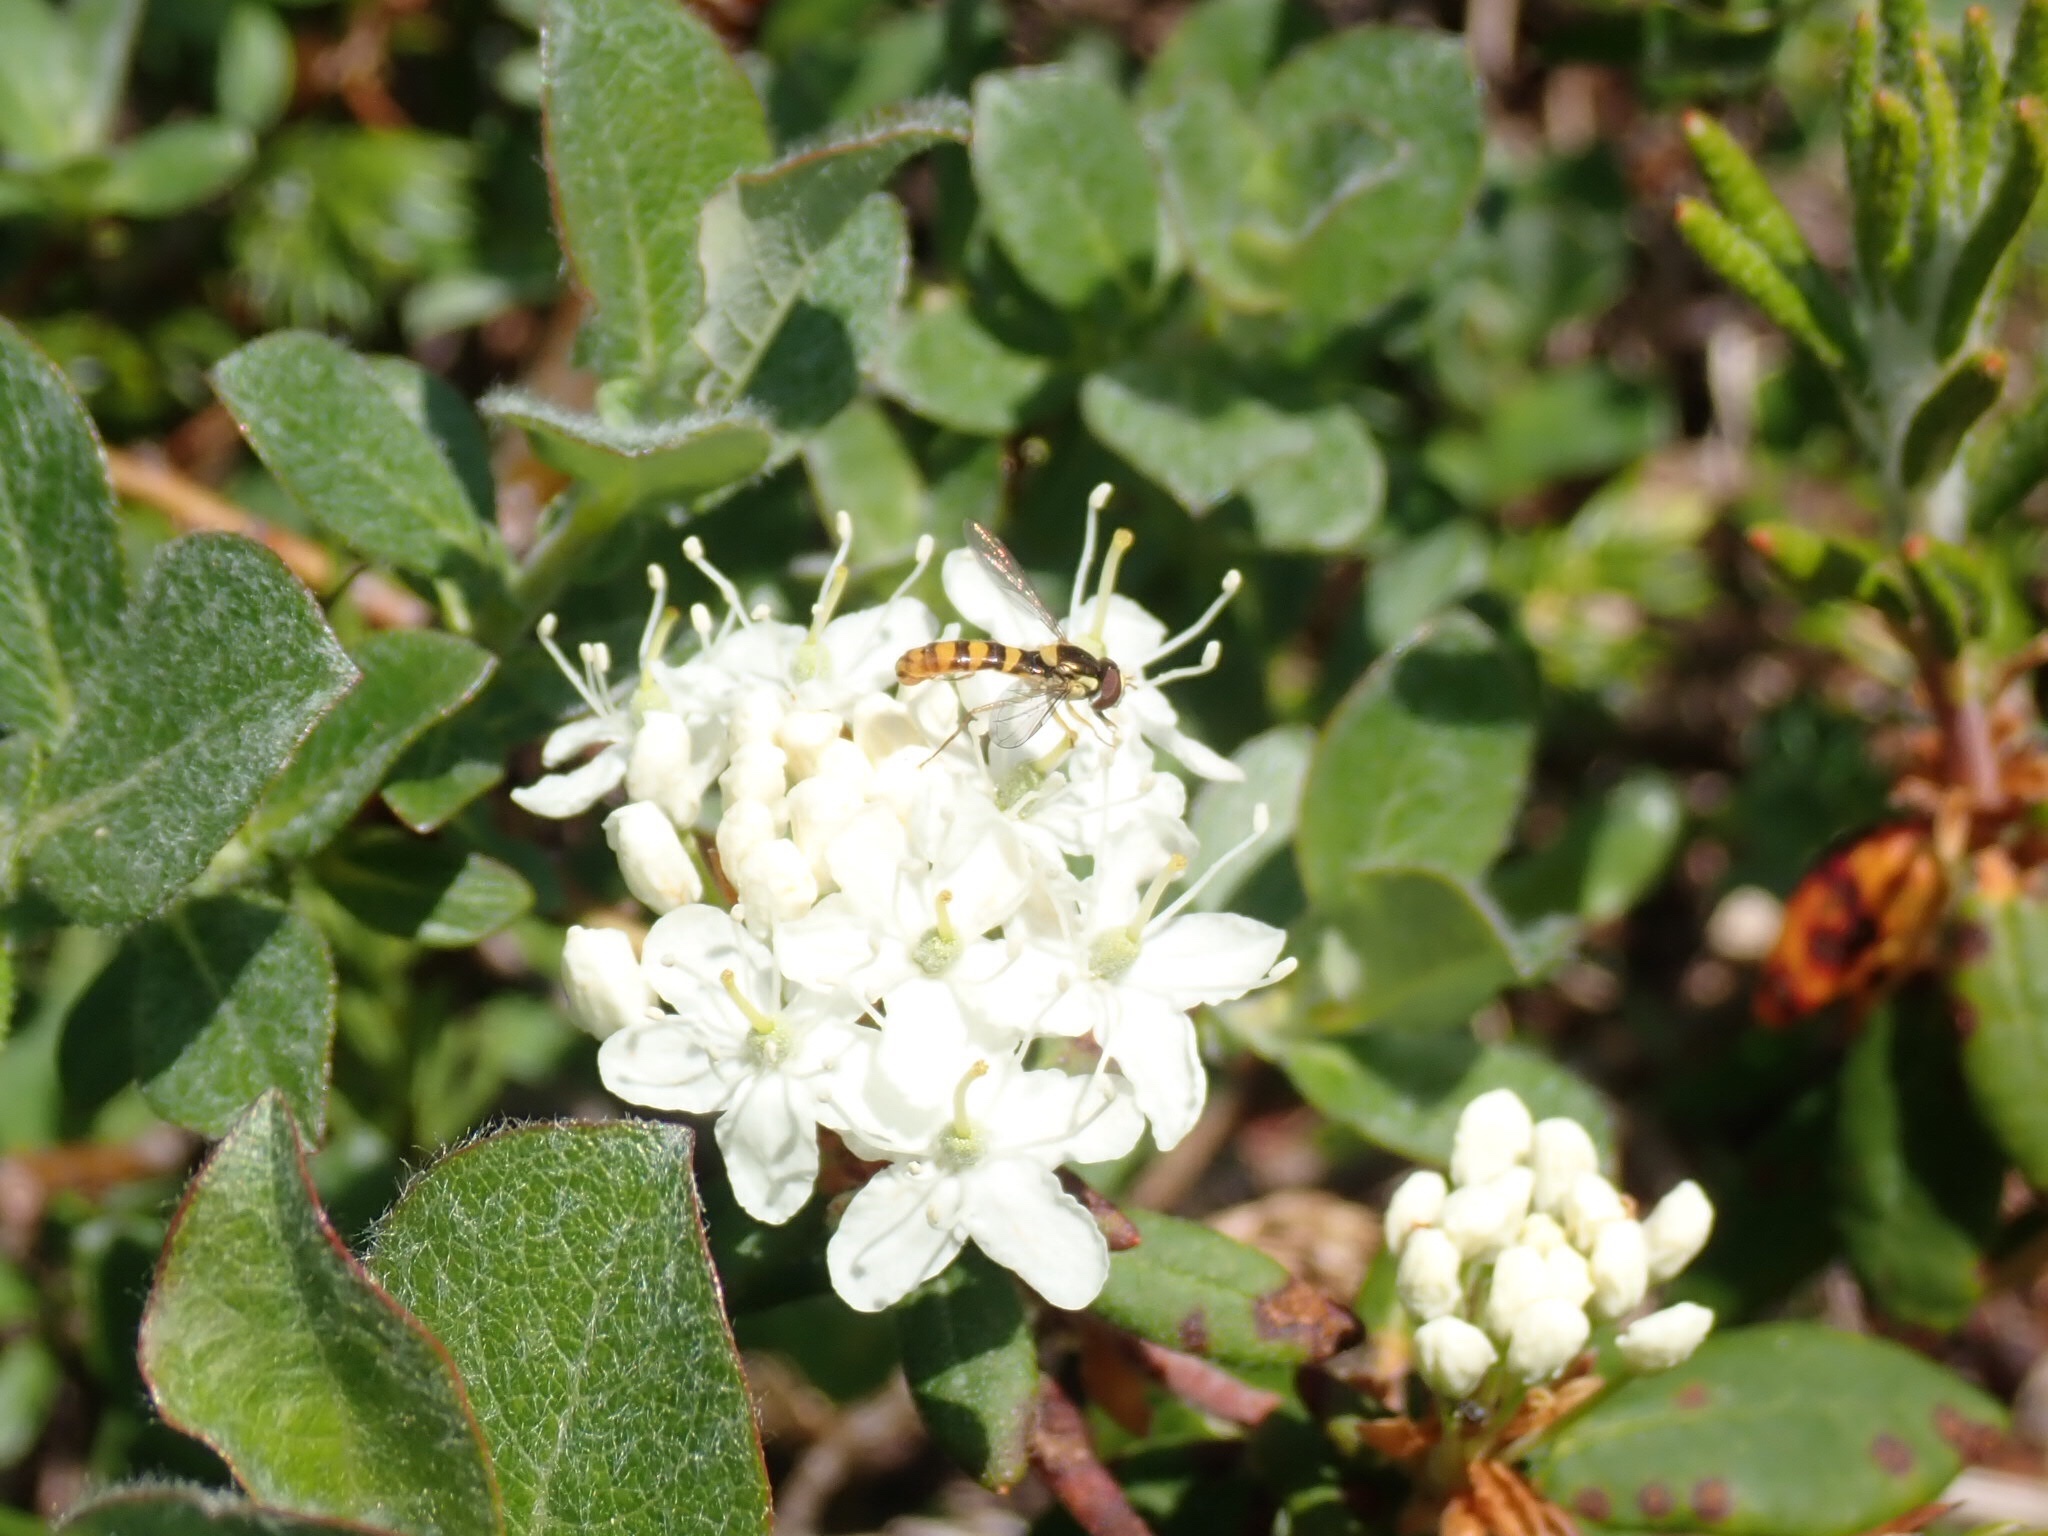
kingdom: Plantae
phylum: Tracheophyta
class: Magnoliopsida
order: Ericales
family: Ericaceae
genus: Rhododendron
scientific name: Rhododendron groenlandicum
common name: Bog labrador tea
